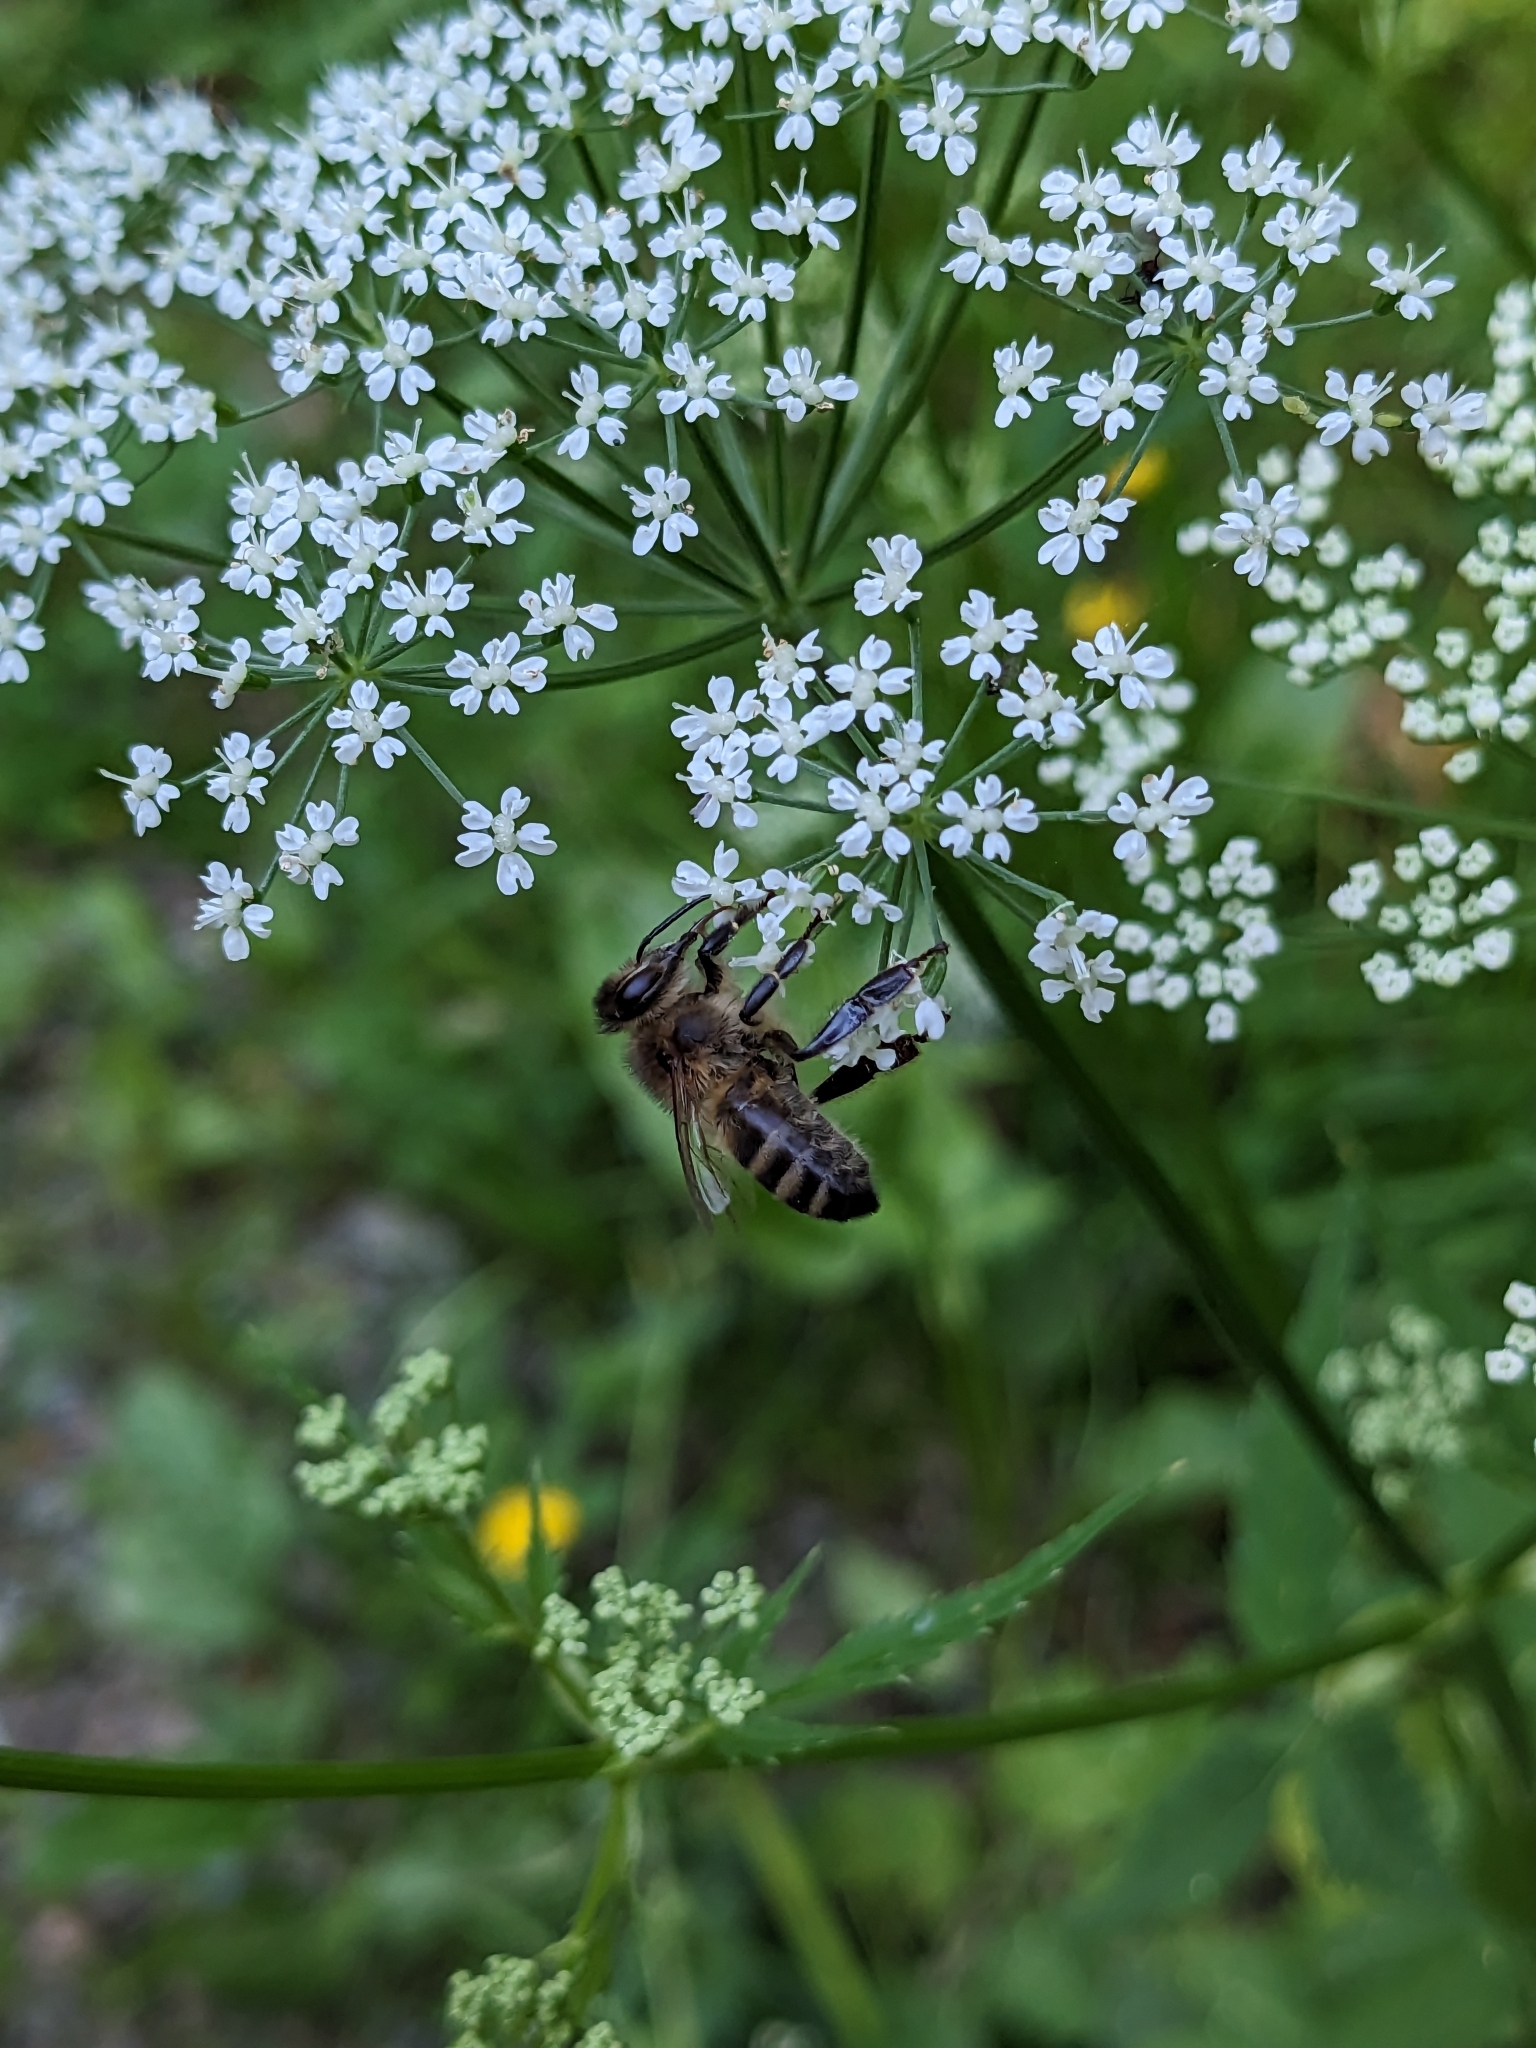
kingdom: Animalia
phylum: Arthropoda
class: Insecta
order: Hymenoptera
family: Apidae
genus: Apis
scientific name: Apis mellifera
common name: Honey bee
